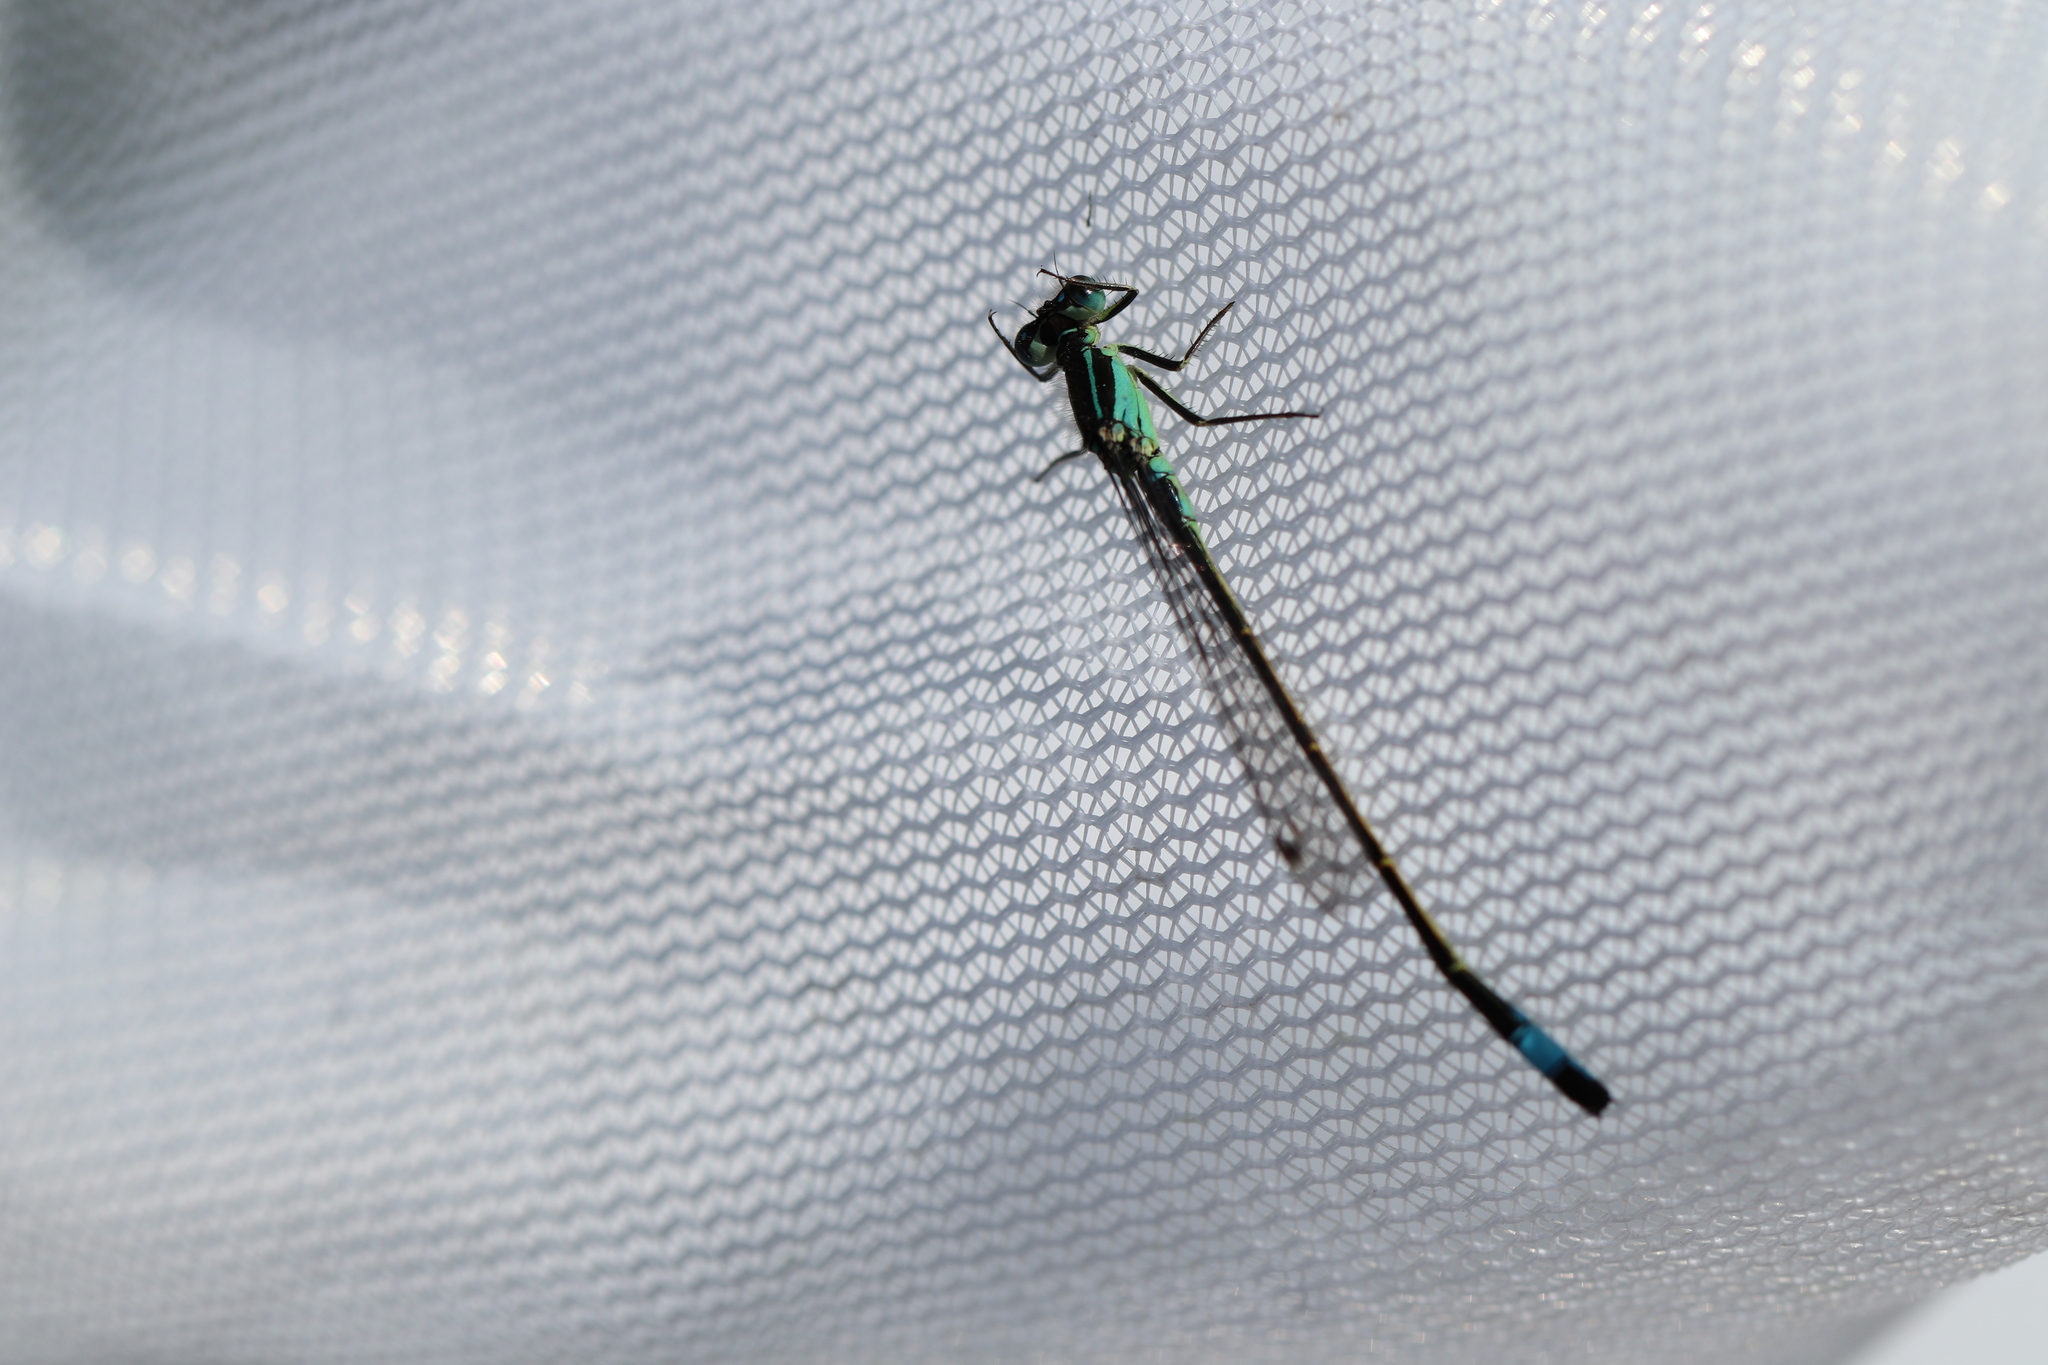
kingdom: Animalia
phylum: Arthropoda
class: Insecta
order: Odonata
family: Coenagrionidae
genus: Ischnura
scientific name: Ischnura elegans
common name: Blue-tailed damselfly
